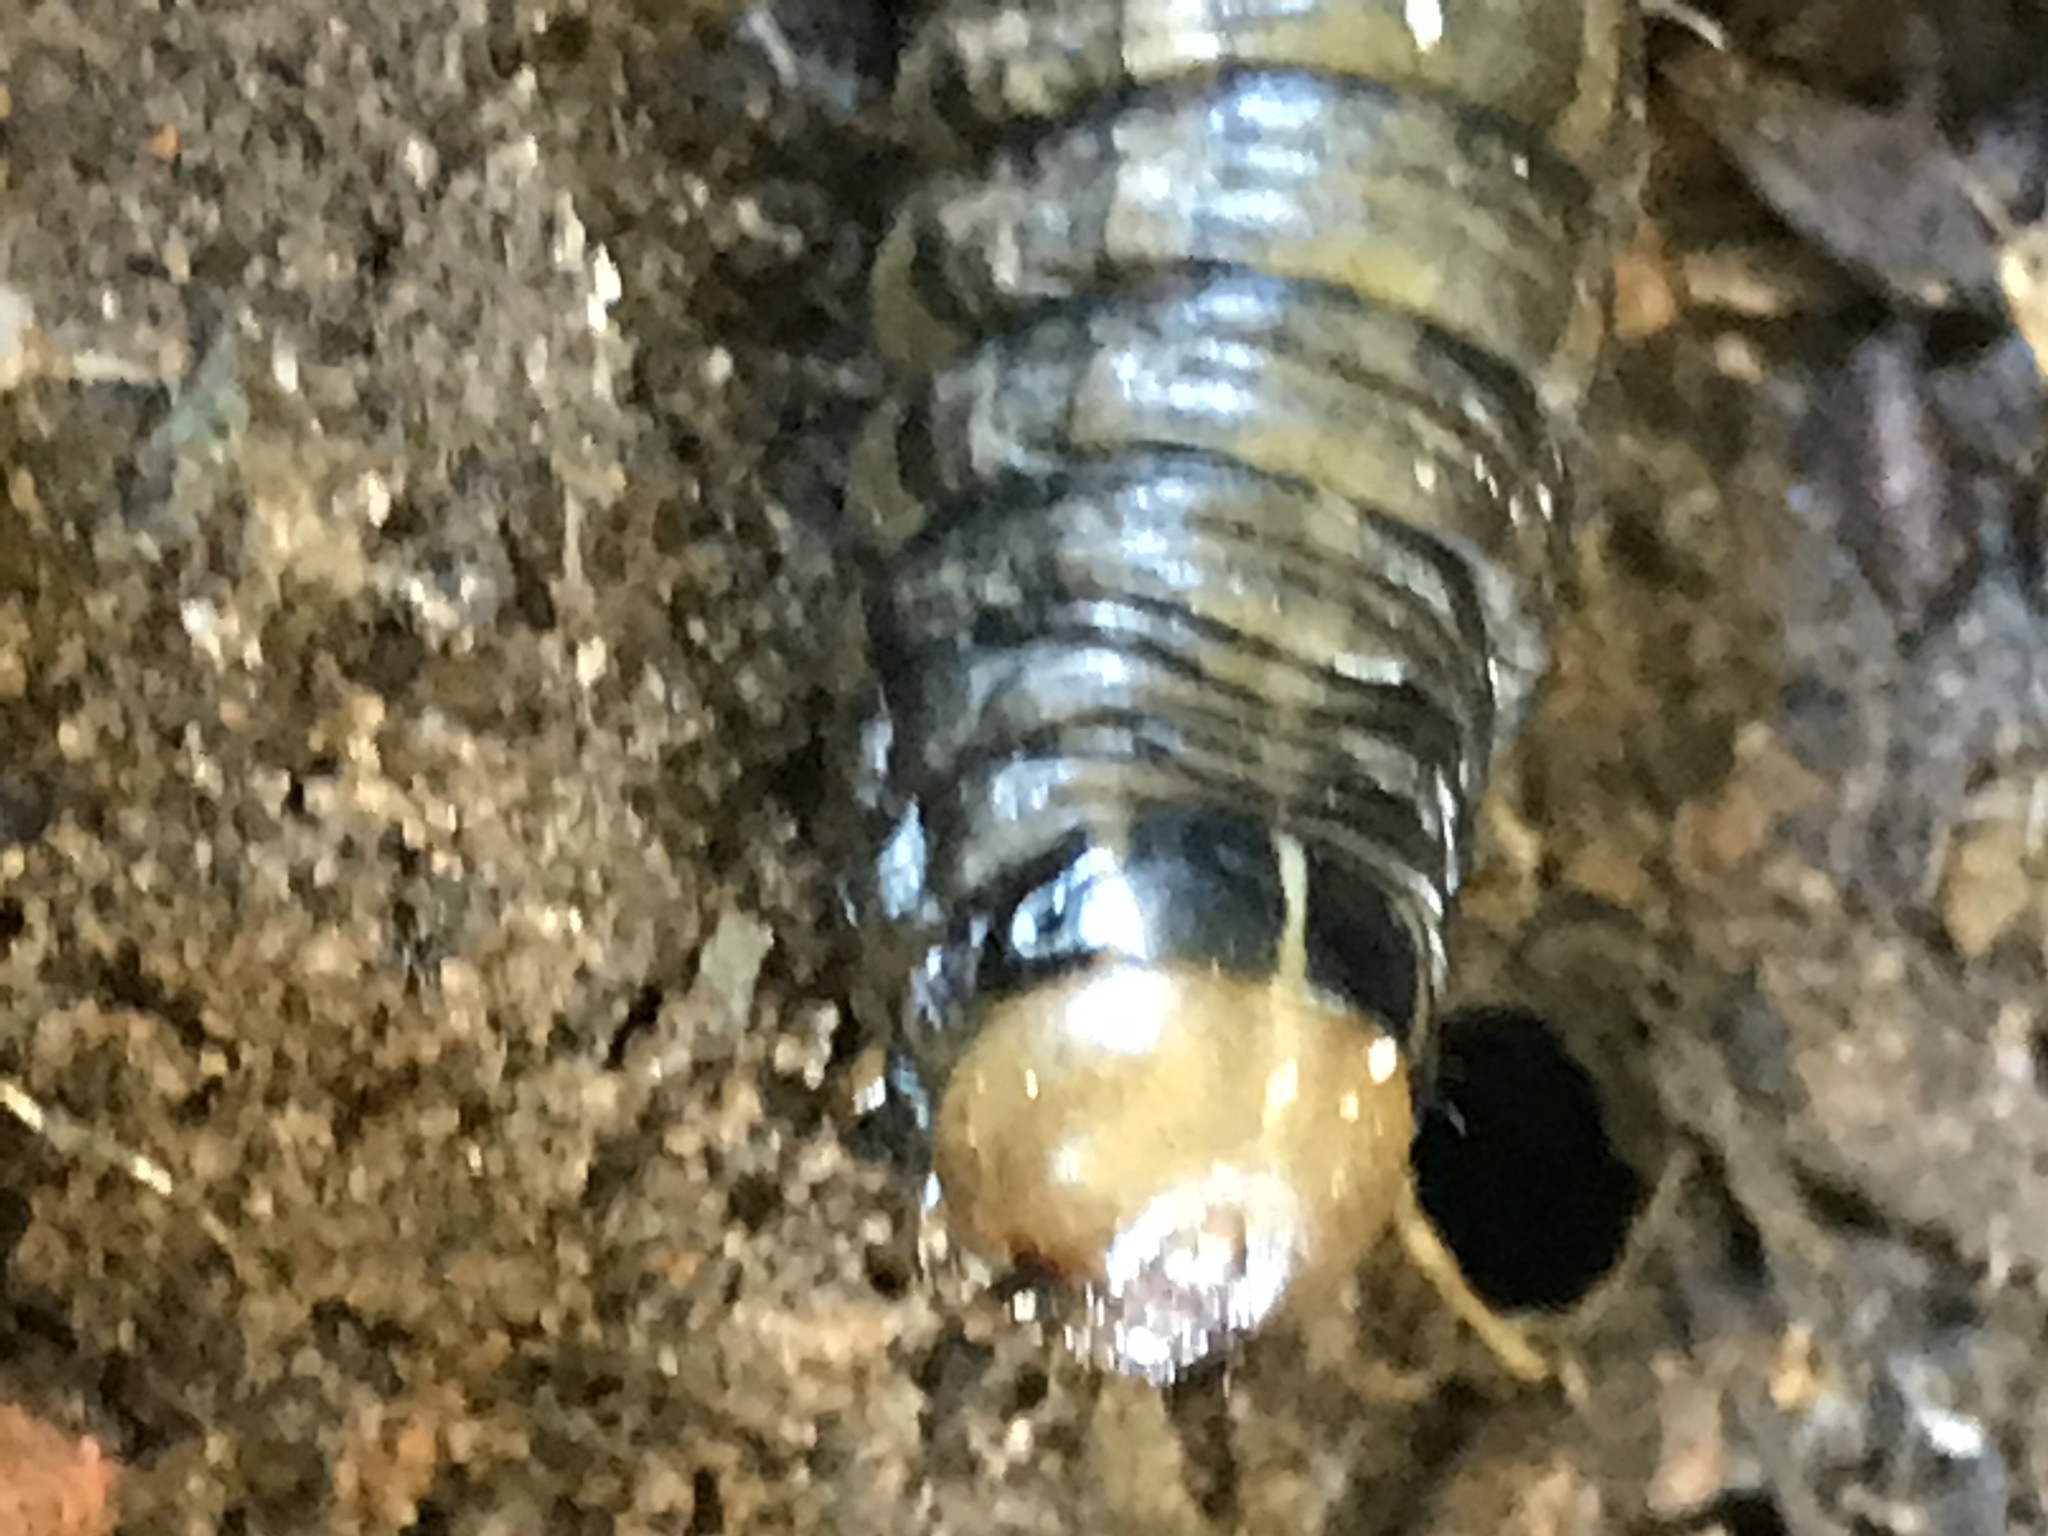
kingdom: Animalia
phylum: Arthropoda
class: Insecta
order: Lepidoptera
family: Noctuidae
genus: Nephelodes
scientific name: Nephelodes minians
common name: Bronzed cutworm
